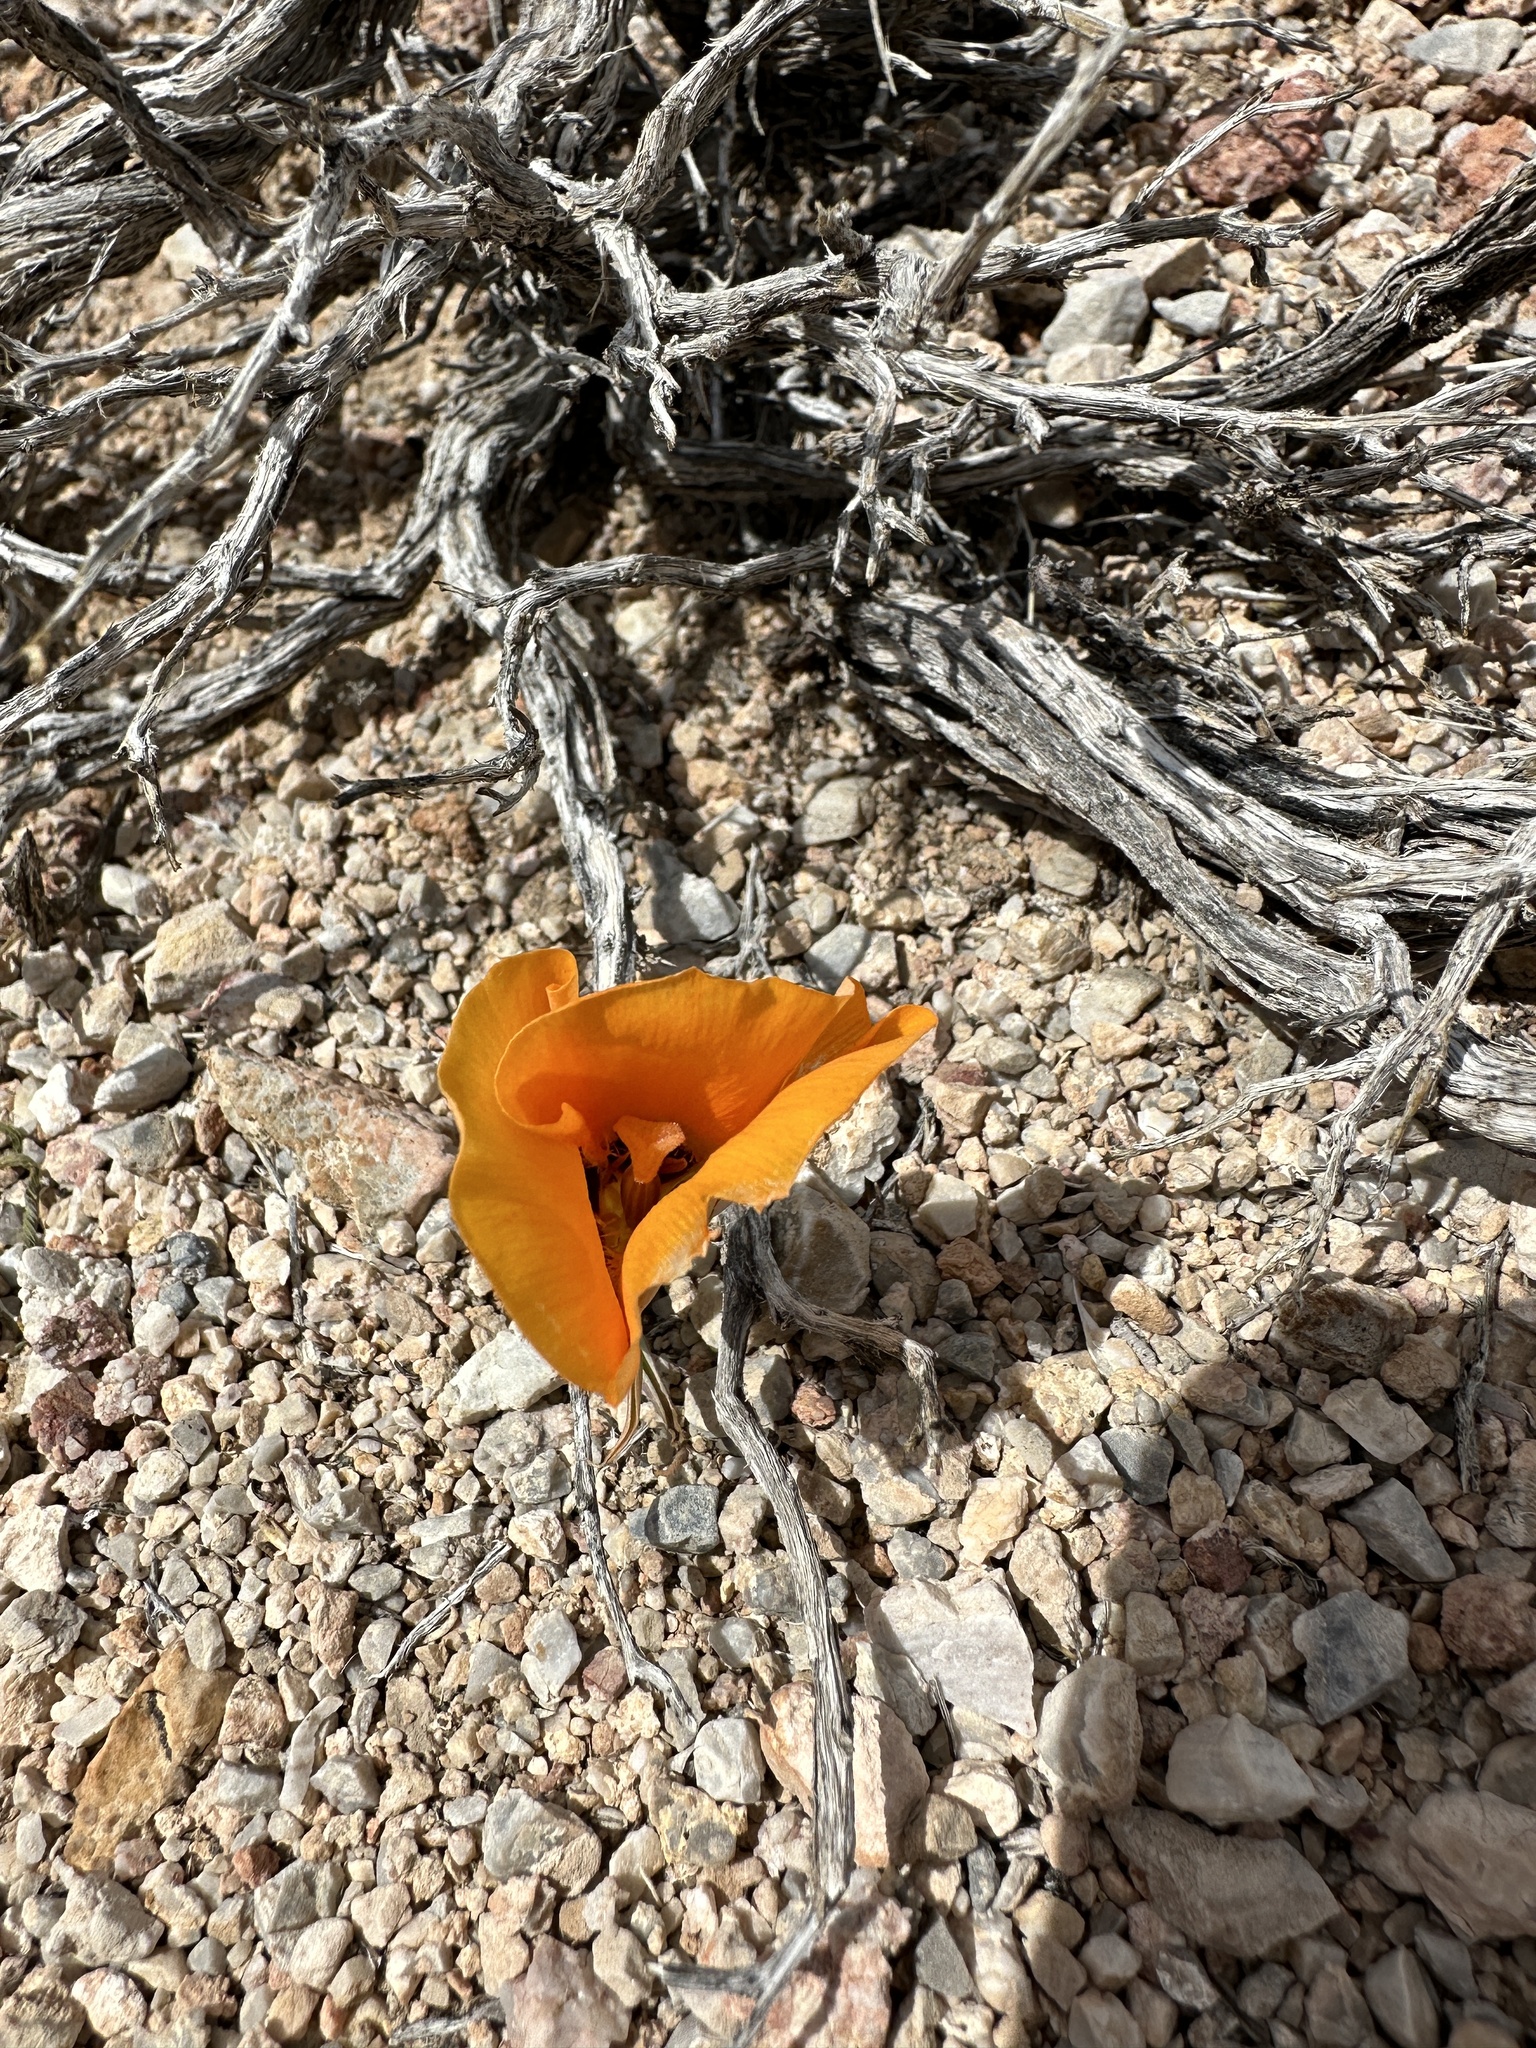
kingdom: Plantae
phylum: Tracheophyta
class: Liliopsida
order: Liliales
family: Liliaceae
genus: Calochortus
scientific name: Calochortus kennedyi
